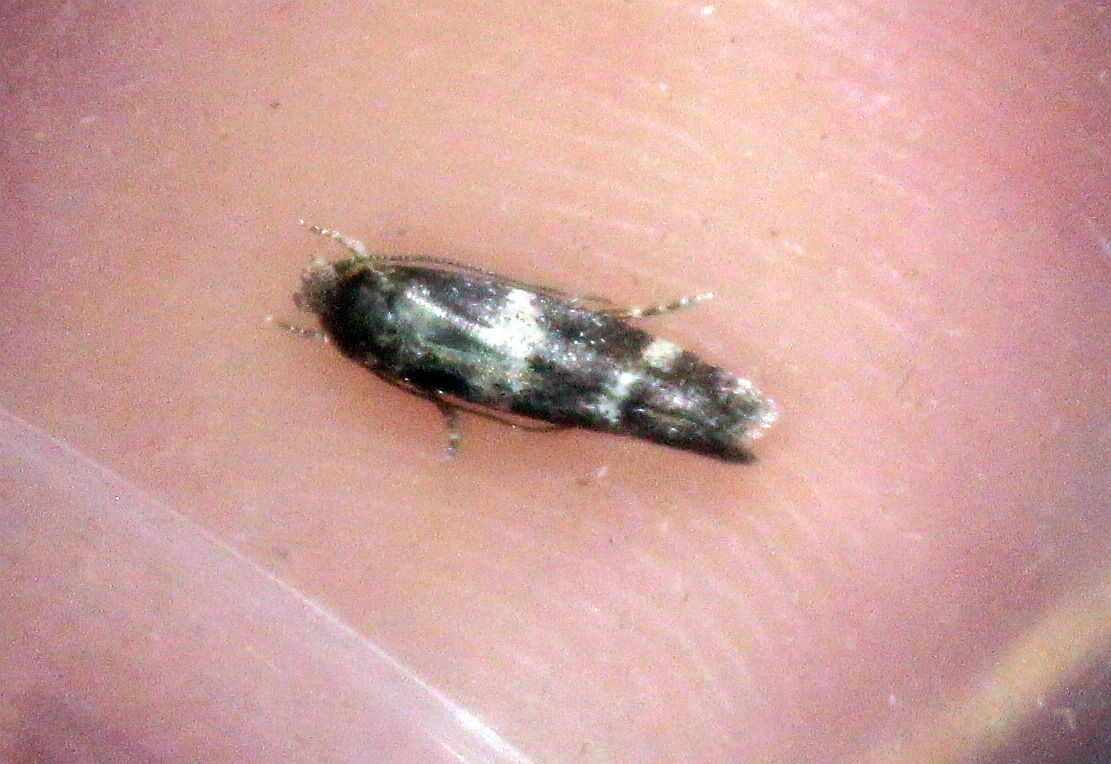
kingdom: Animalia
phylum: Arthropoda
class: Insecta
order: Lepidoptera
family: Momphidae
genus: Mompha
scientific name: Mompha subbistrigella
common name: Garden cosmet
